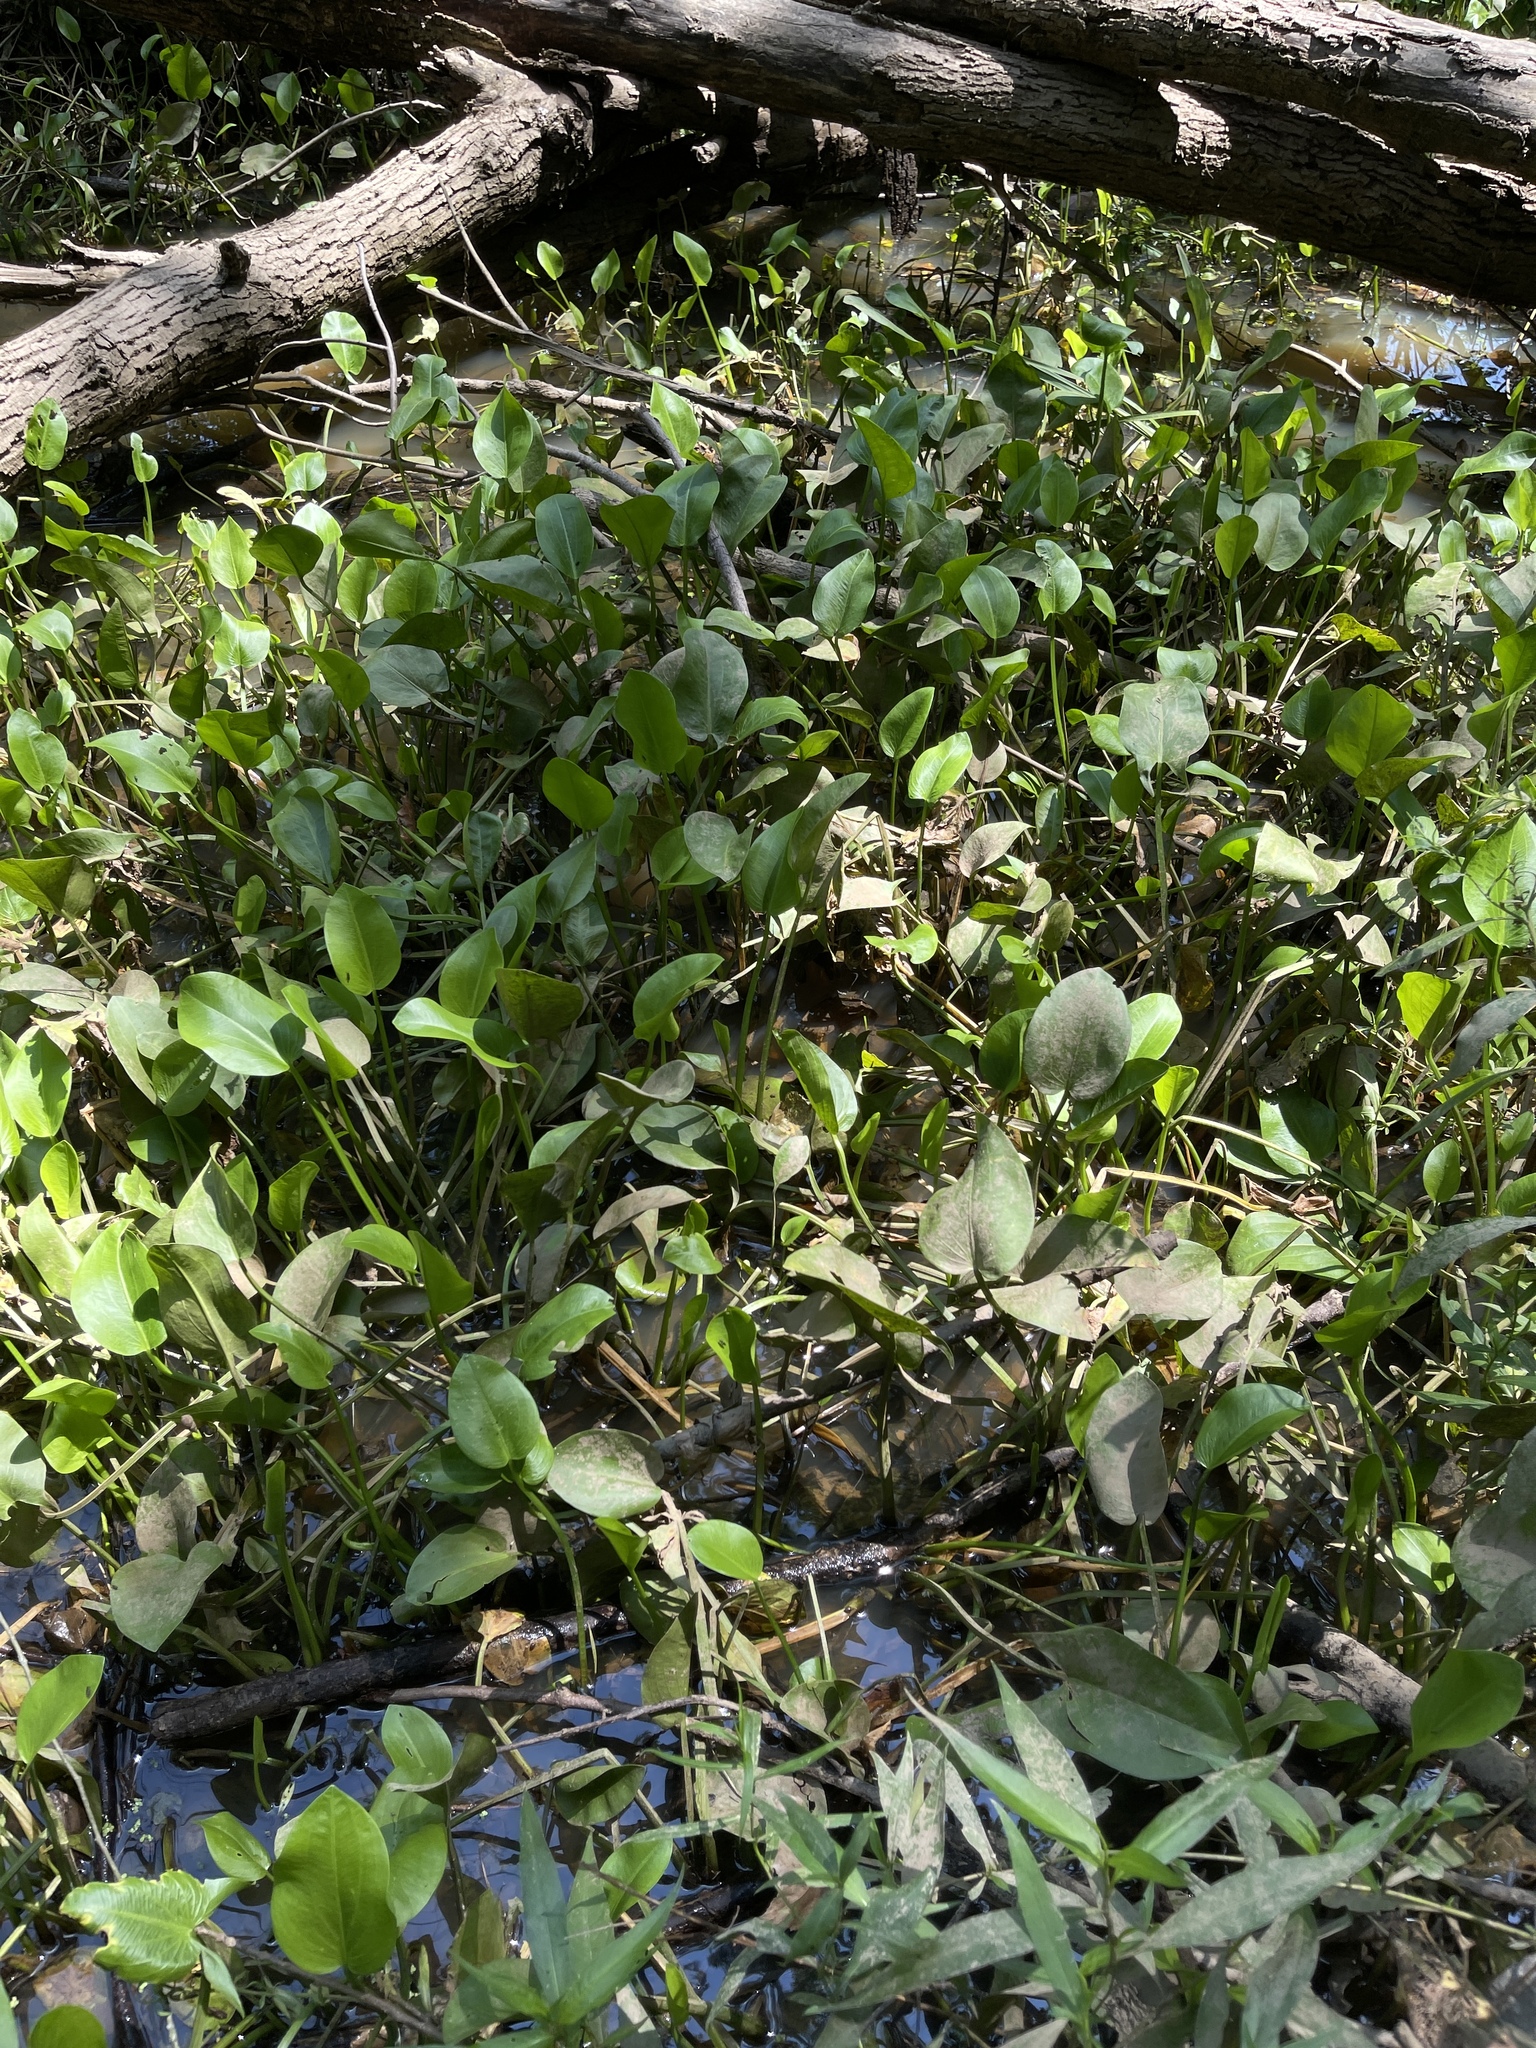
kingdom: Plantae
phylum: Tracheophyta
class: Liliopsida
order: Alismatales
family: Alismataceae
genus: Sagittaria
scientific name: Sagittaria rigida
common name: Canadian arrowhead
